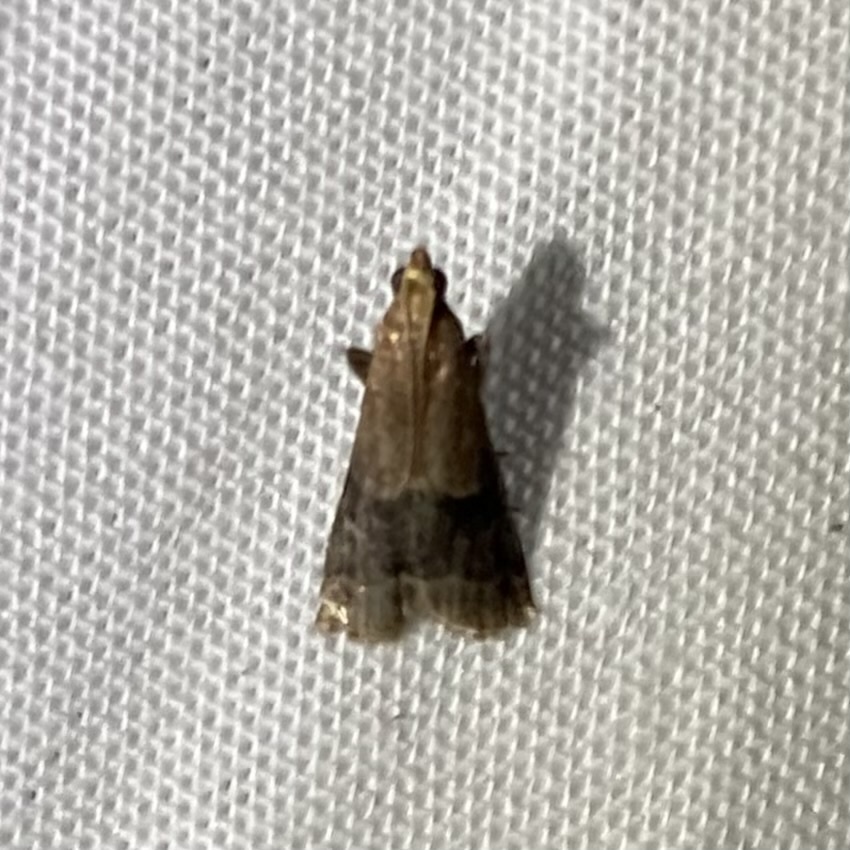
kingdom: Animalia
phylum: Arthropoda
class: Insecta
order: Lepidoptera
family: Pyralidae
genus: Eulogia
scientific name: Eulogia ochrifrontella
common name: Broad-banded eulogia moth
